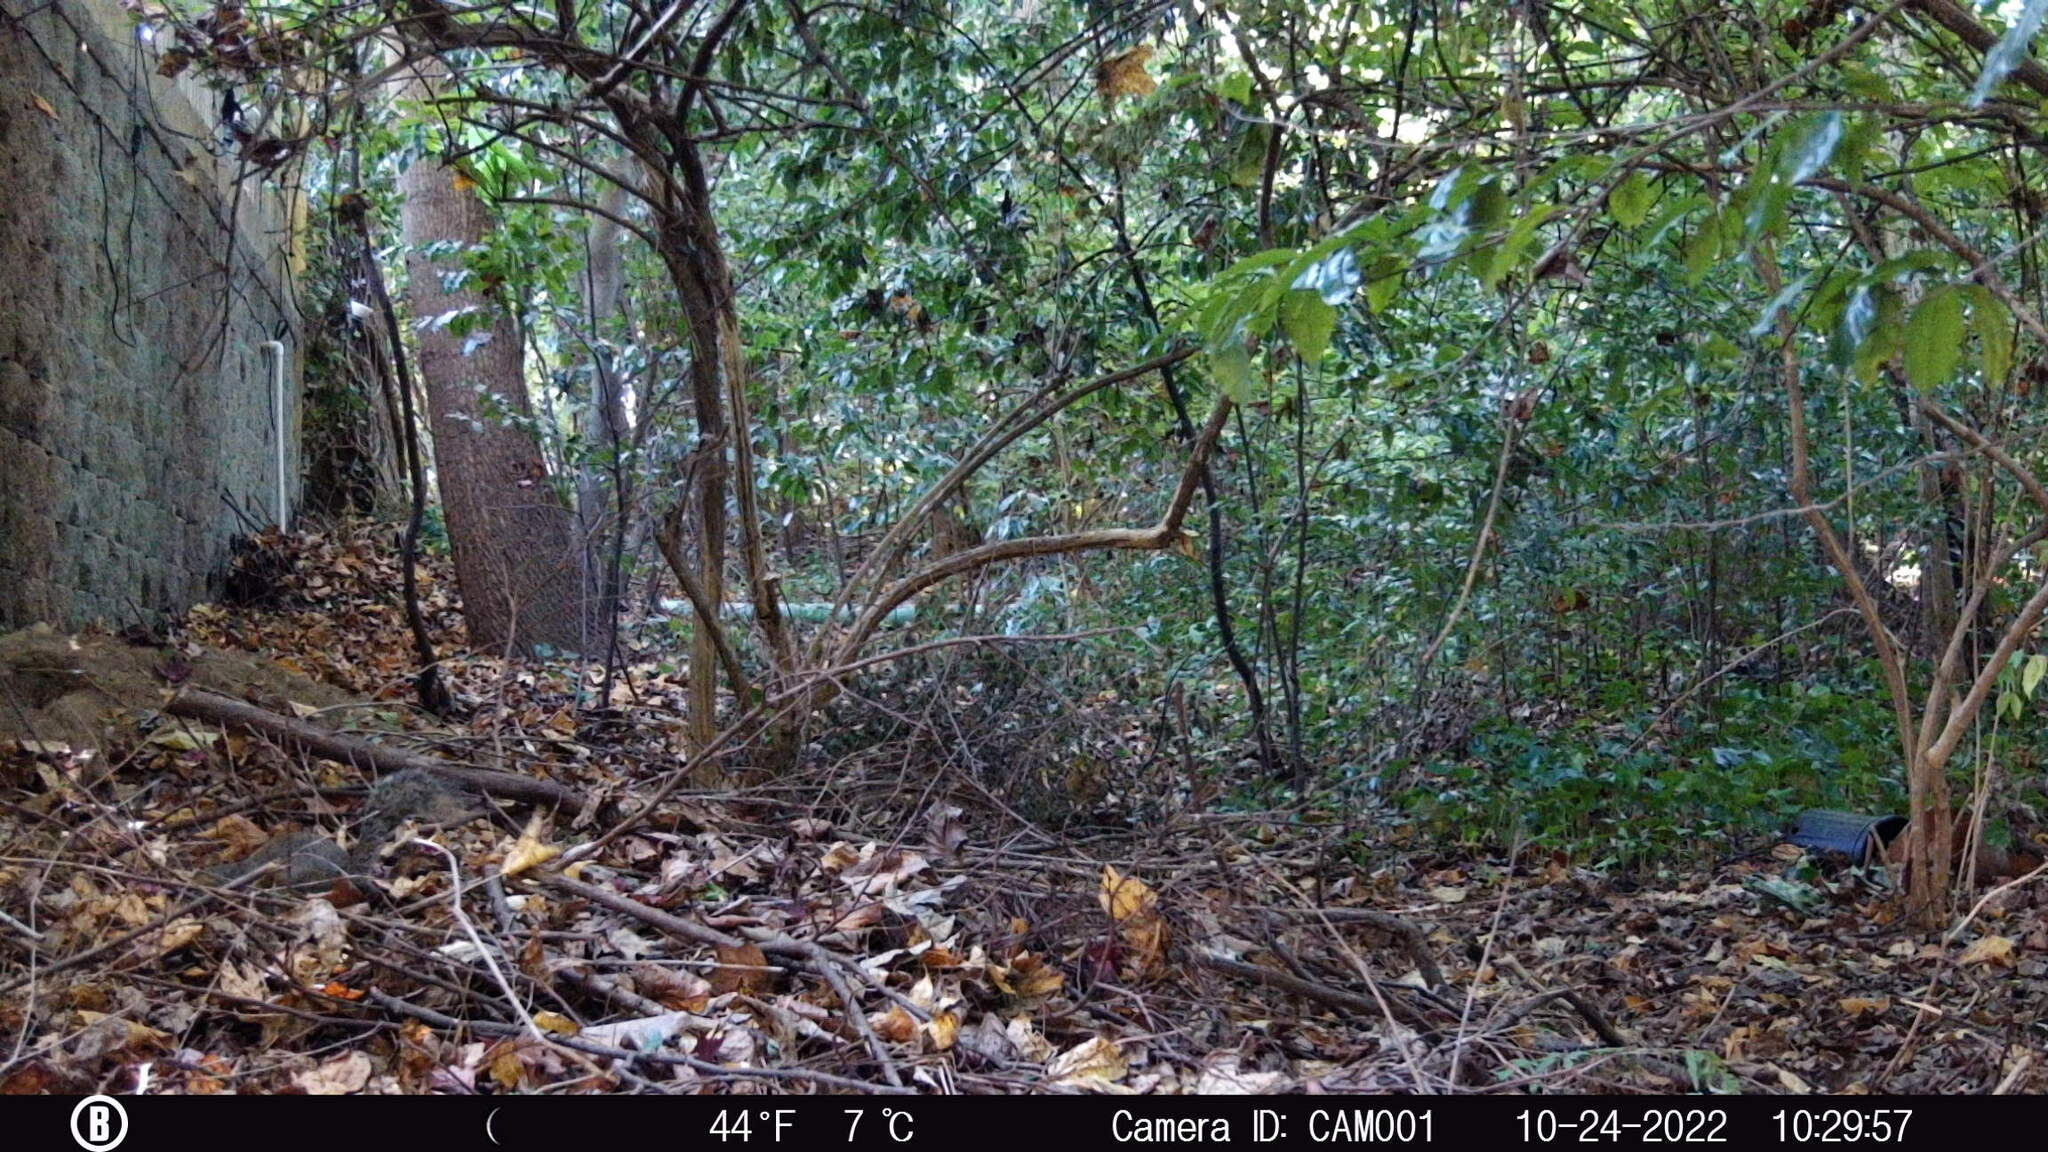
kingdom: Animalia
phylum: Chordata
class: Mammalia
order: Rodentia
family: Sciuridae
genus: Sciurus
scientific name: Sciurus carolinensis
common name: Eastern gray squirrel
